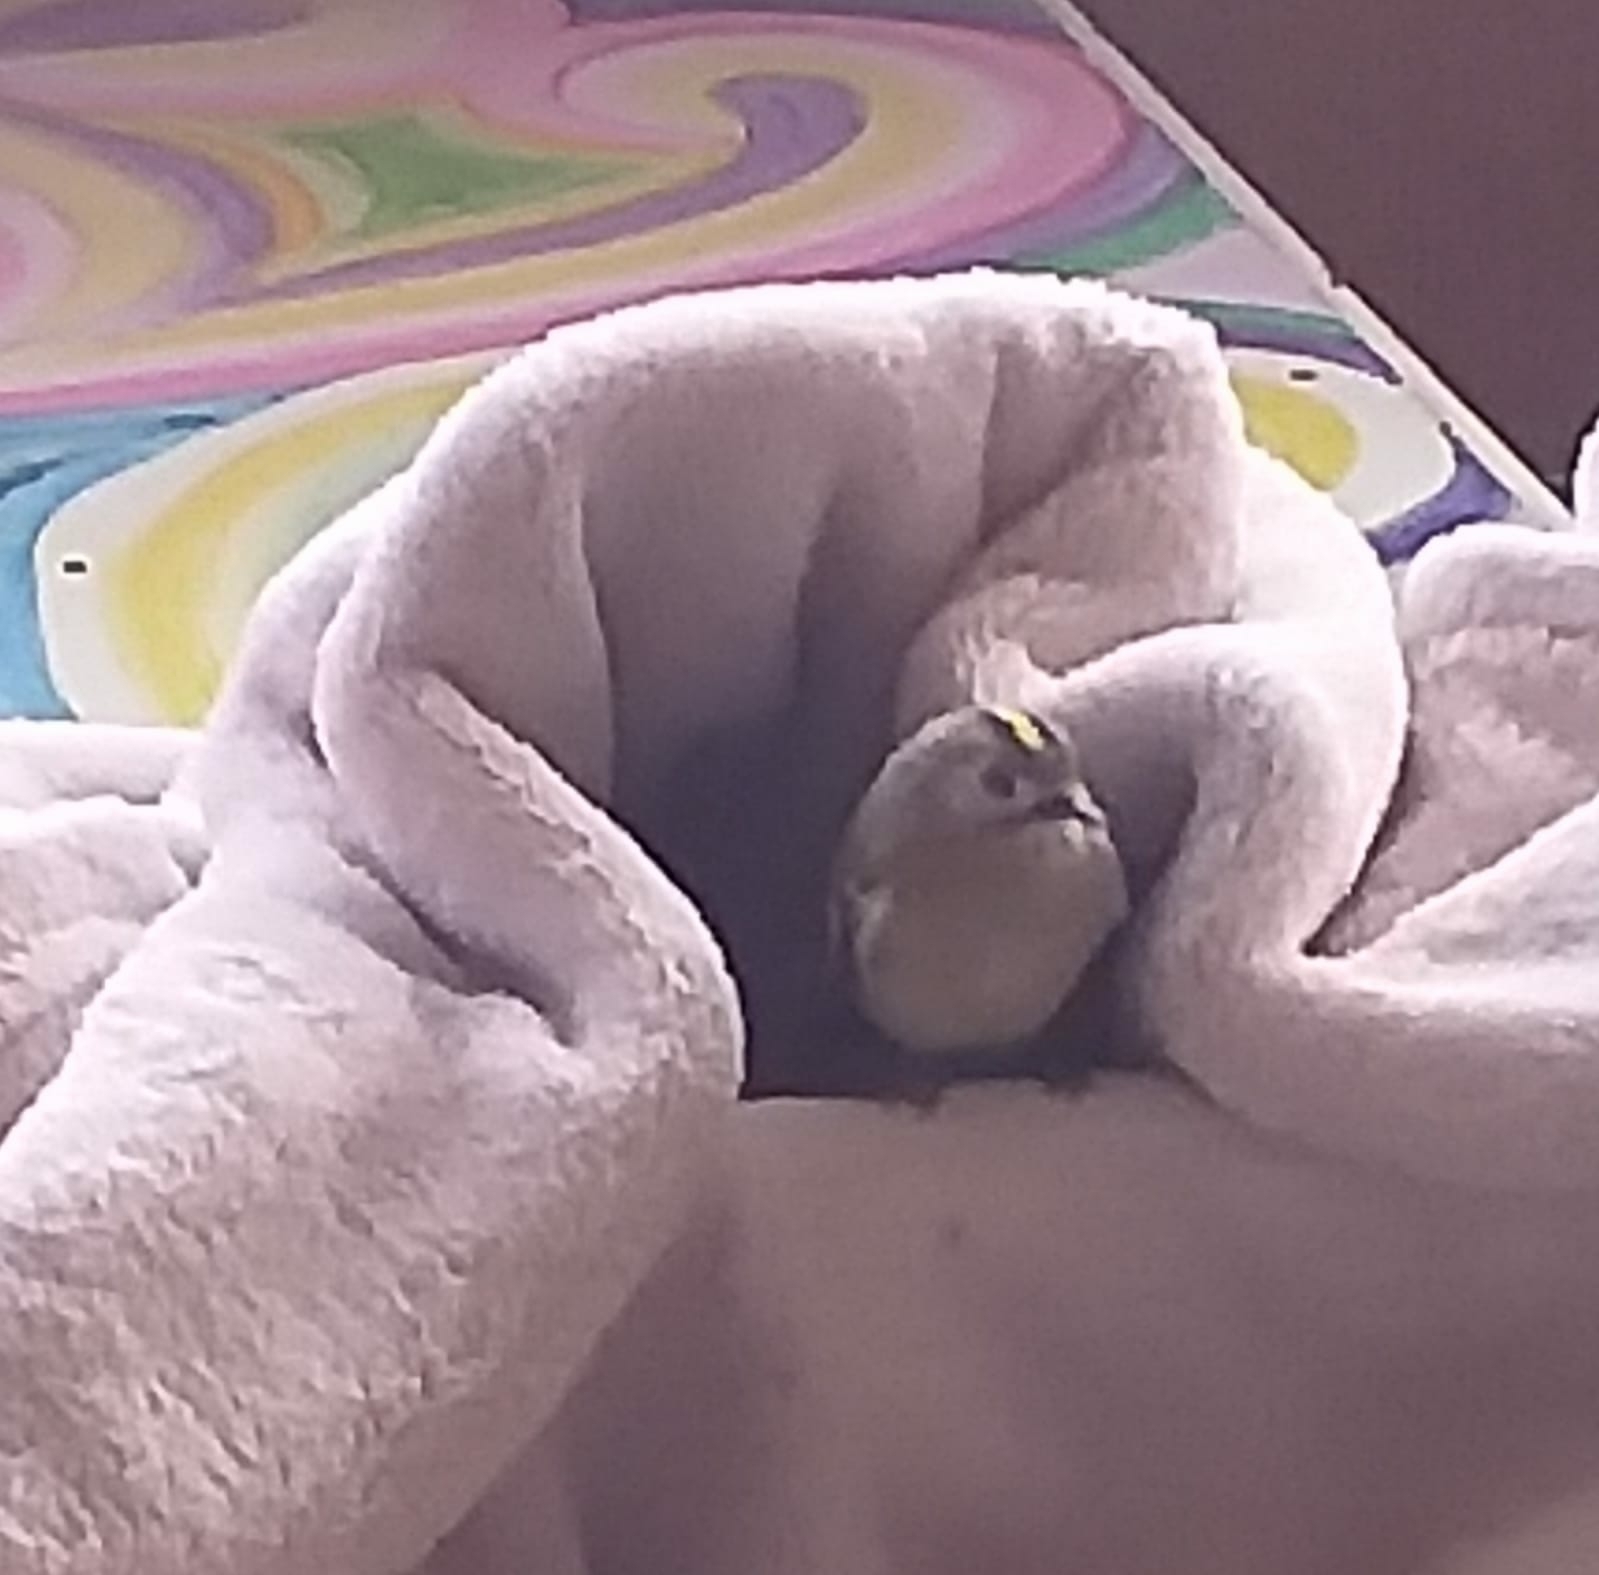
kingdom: Animalia
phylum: Chordata
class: Aves
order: Passeriformes
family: Regulidae
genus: Regulus
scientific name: Regulus regulus
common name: Goldcrest
